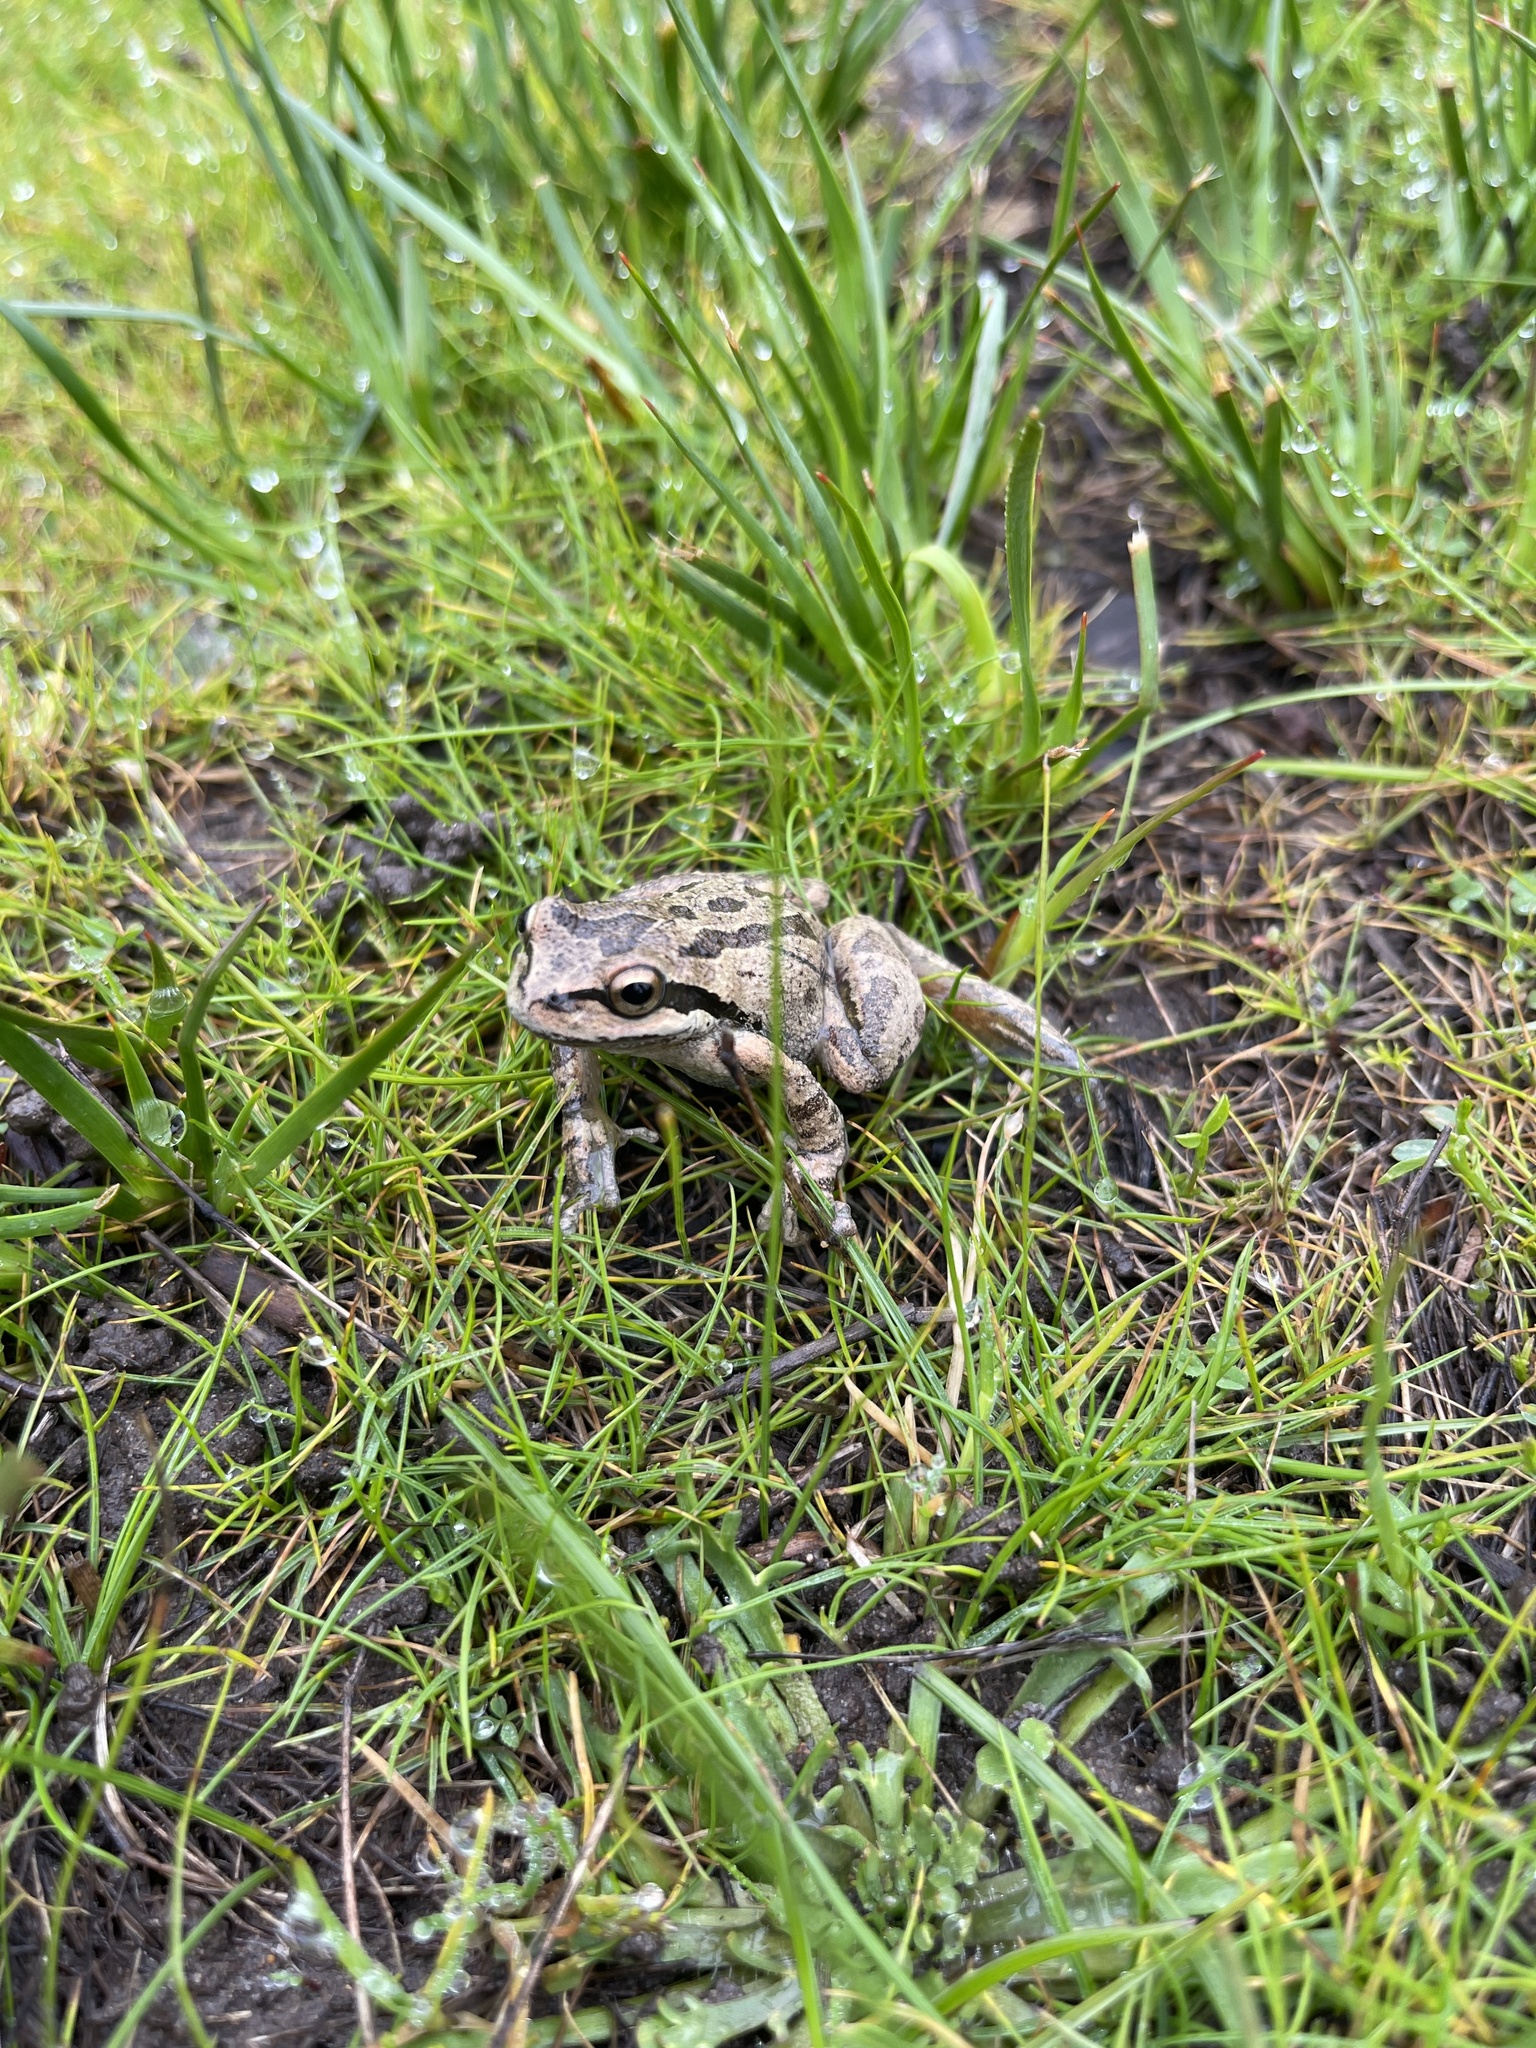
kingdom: Animalia
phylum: Chordata
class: Amphibia
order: Anura
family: Hylidae
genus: Pseudacris
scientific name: Pseudacris regilla
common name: Pacific chorus frog
